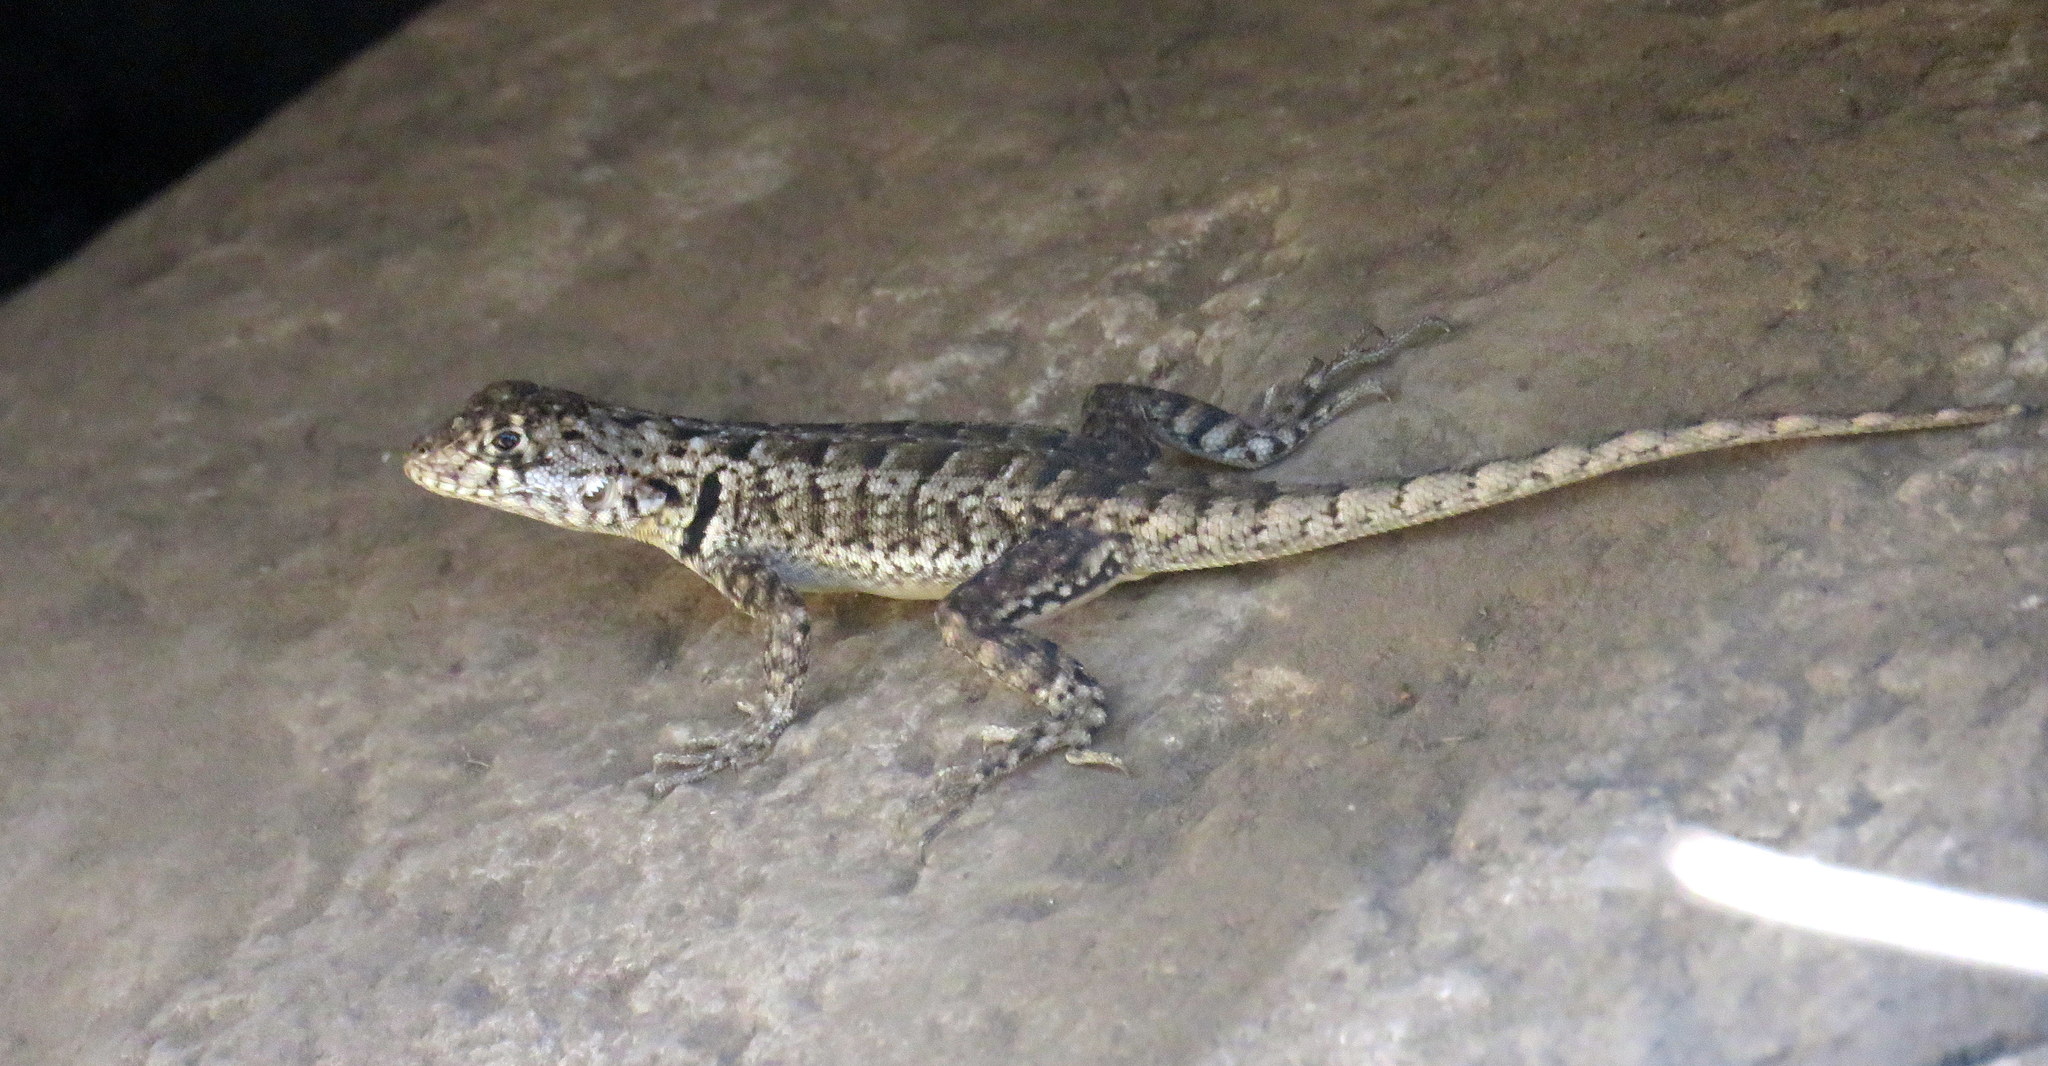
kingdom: Animalia
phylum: Chordata
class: Squamata
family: Tropiduridae
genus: Tropidurus
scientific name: Tropidurus etheridgei
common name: Etheridge's lava lizard
